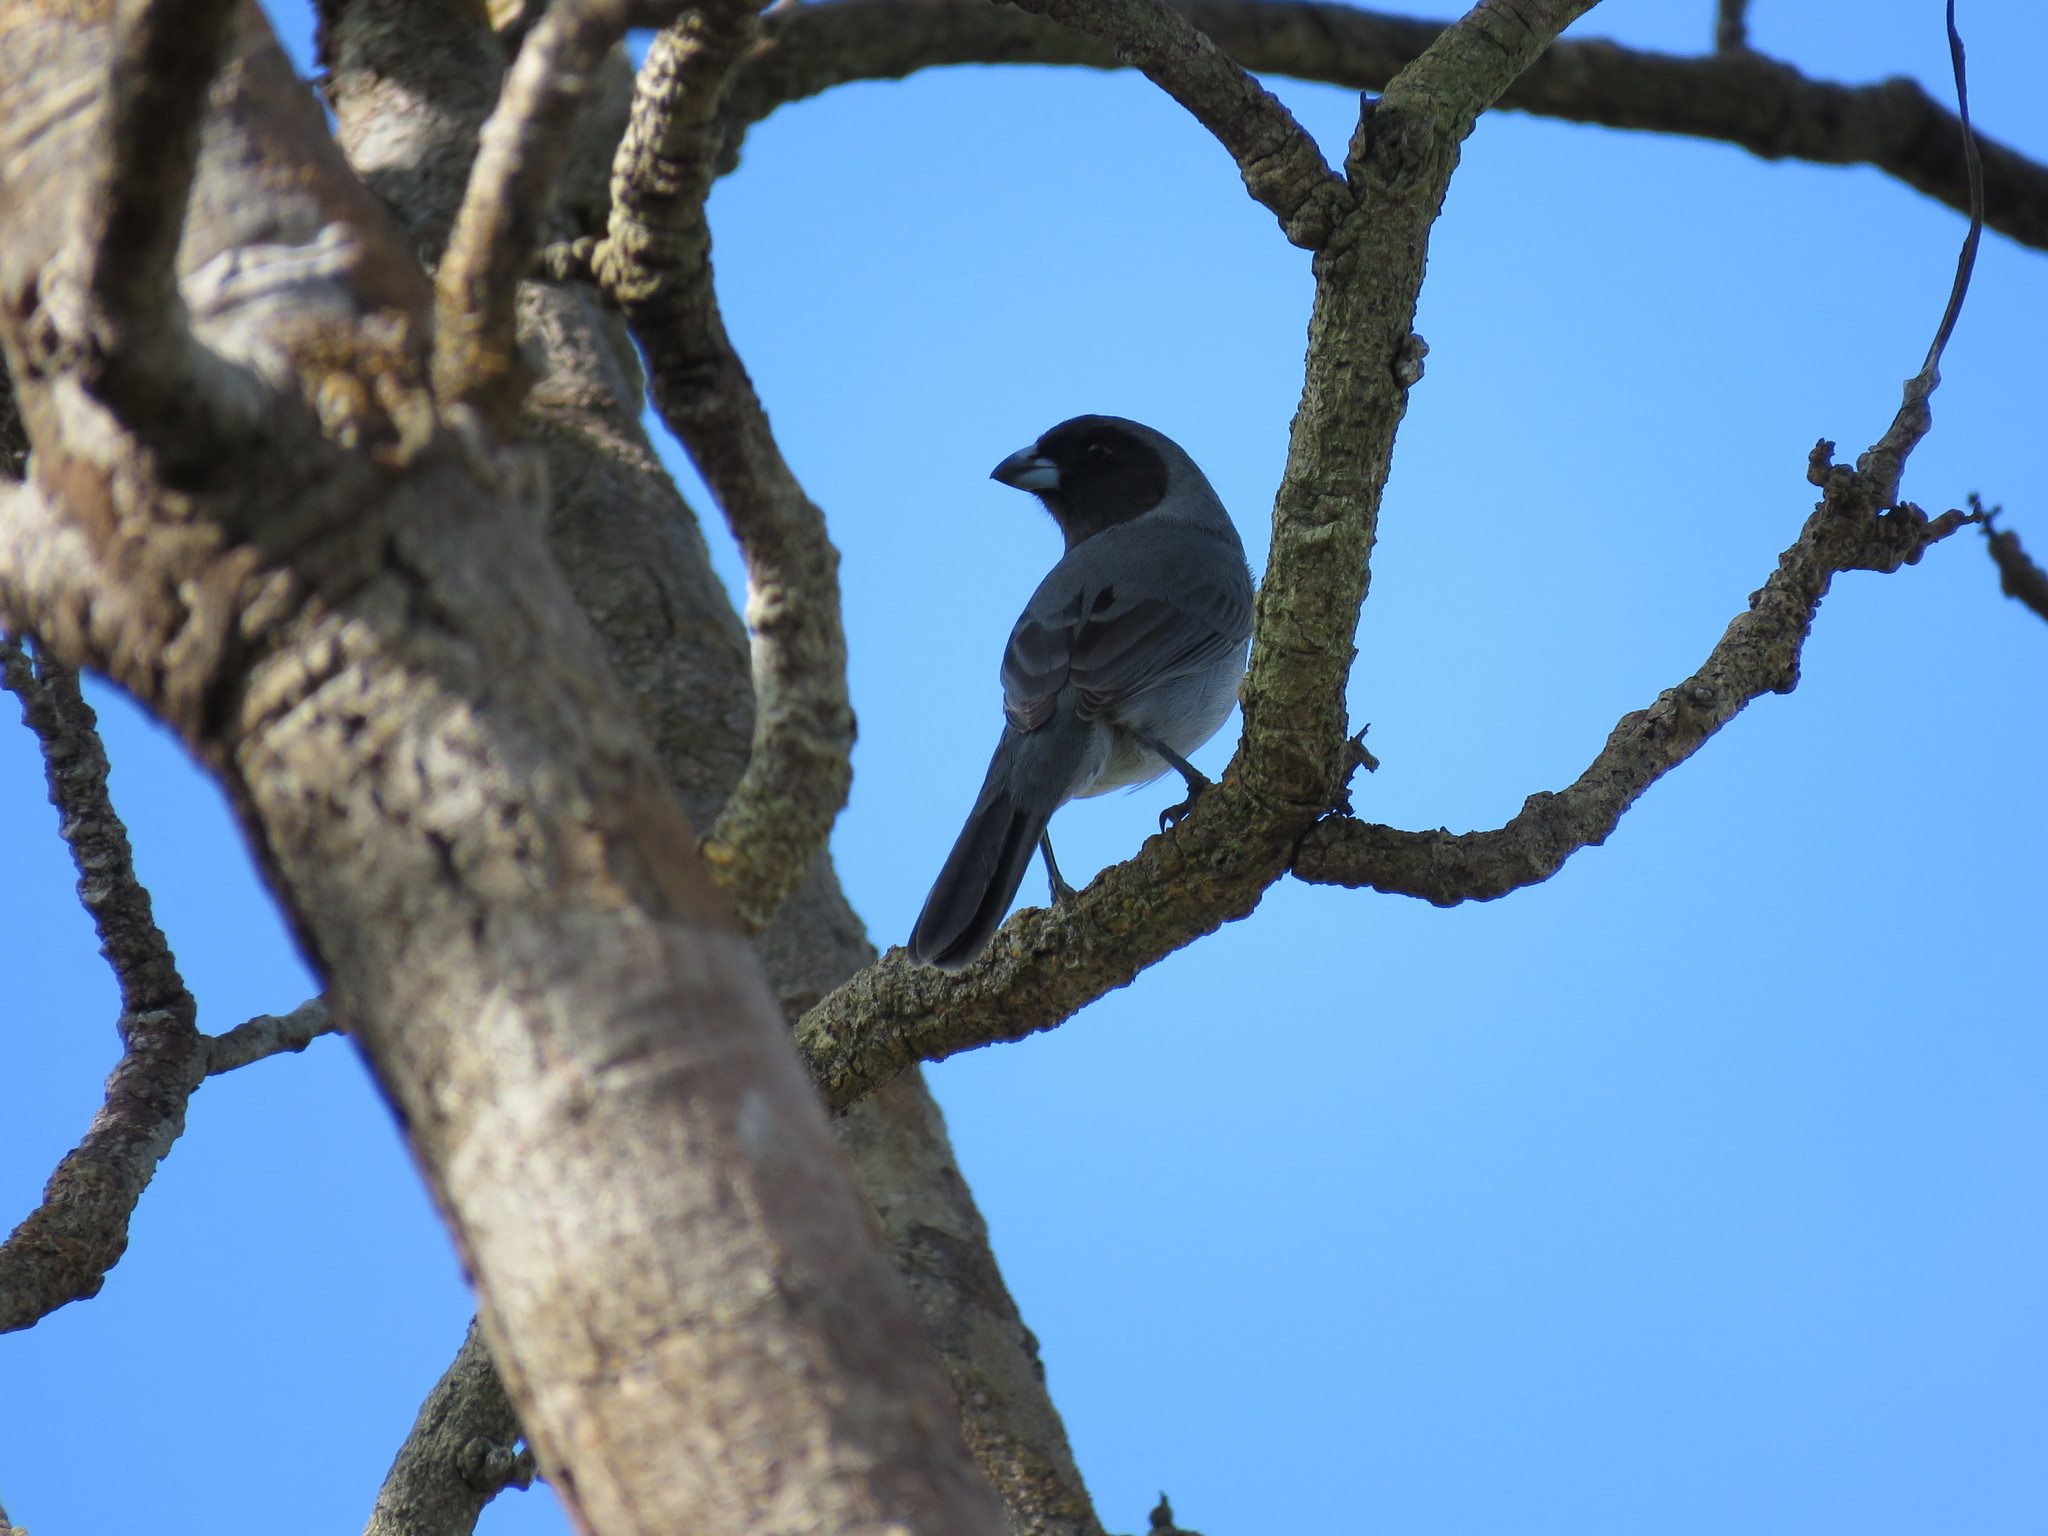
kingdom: Animalia
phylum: Chordata
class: Aves
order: Passeriformes
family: Thraupidae
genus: Schistochlamys
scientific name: Schistochlamys melanopis
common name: Black-faced tanager
